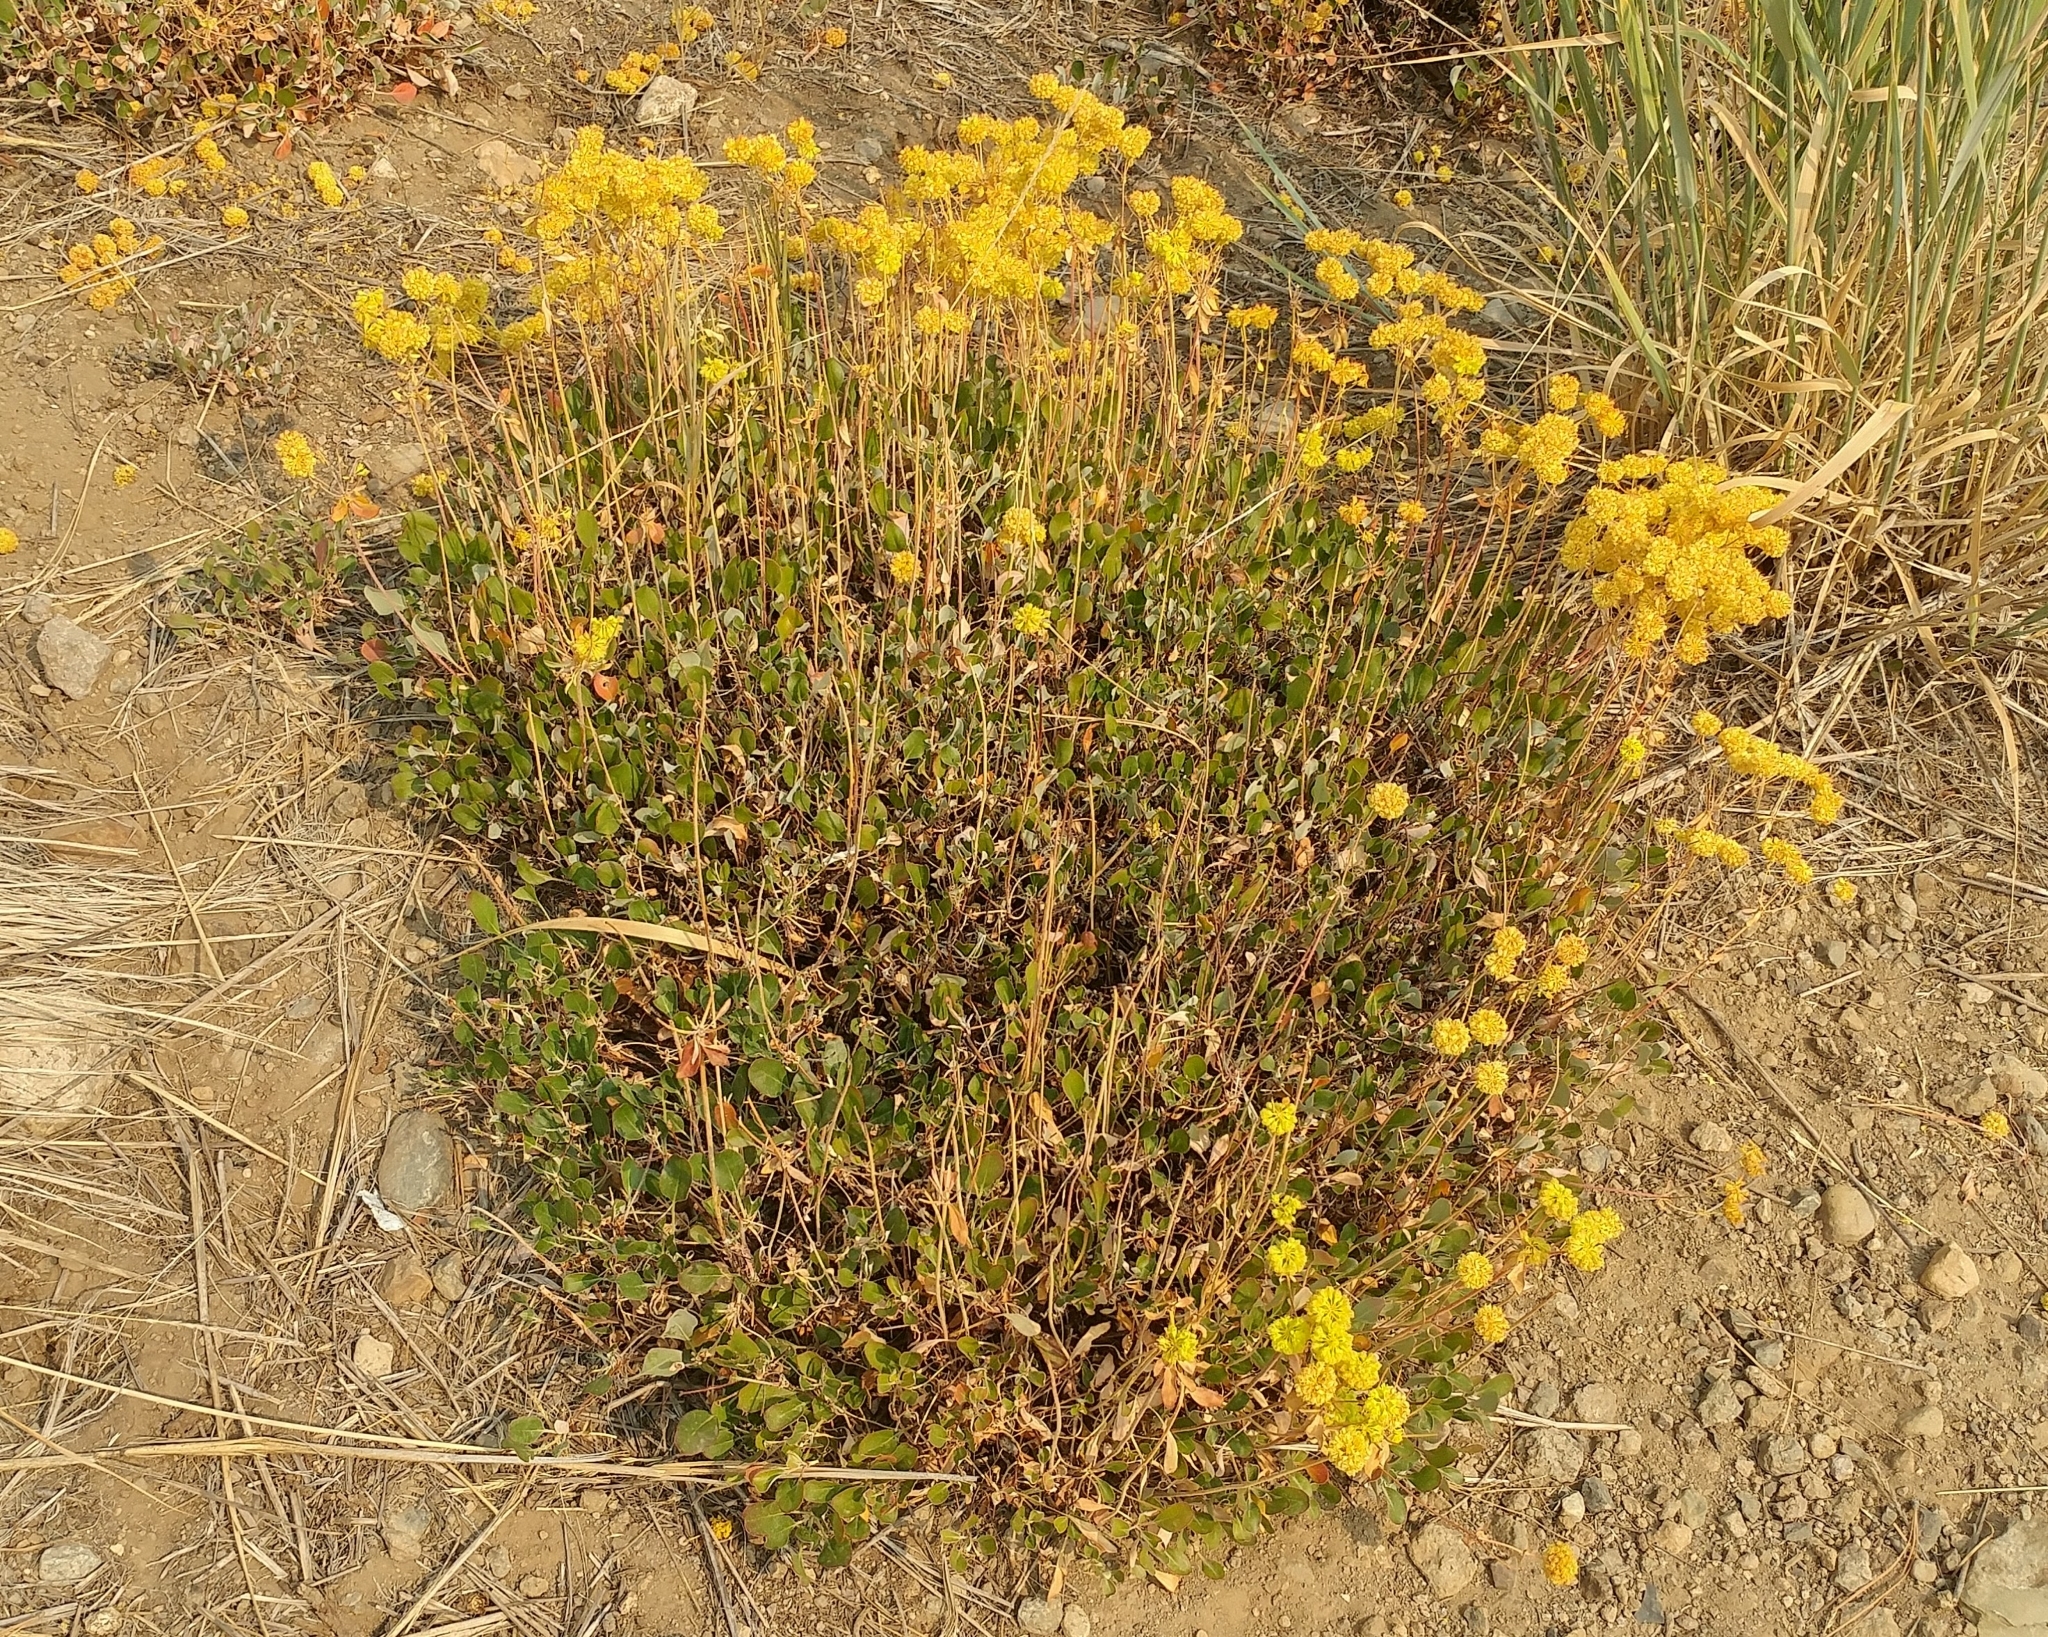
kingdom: Plantae
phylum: Tracheophyta
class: Magnoliopsida
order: Caryophyllales
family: Polygonaceae
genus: Eriogonum
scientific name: Eriogonum umbellatum
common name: Sulfur-buckwheat
